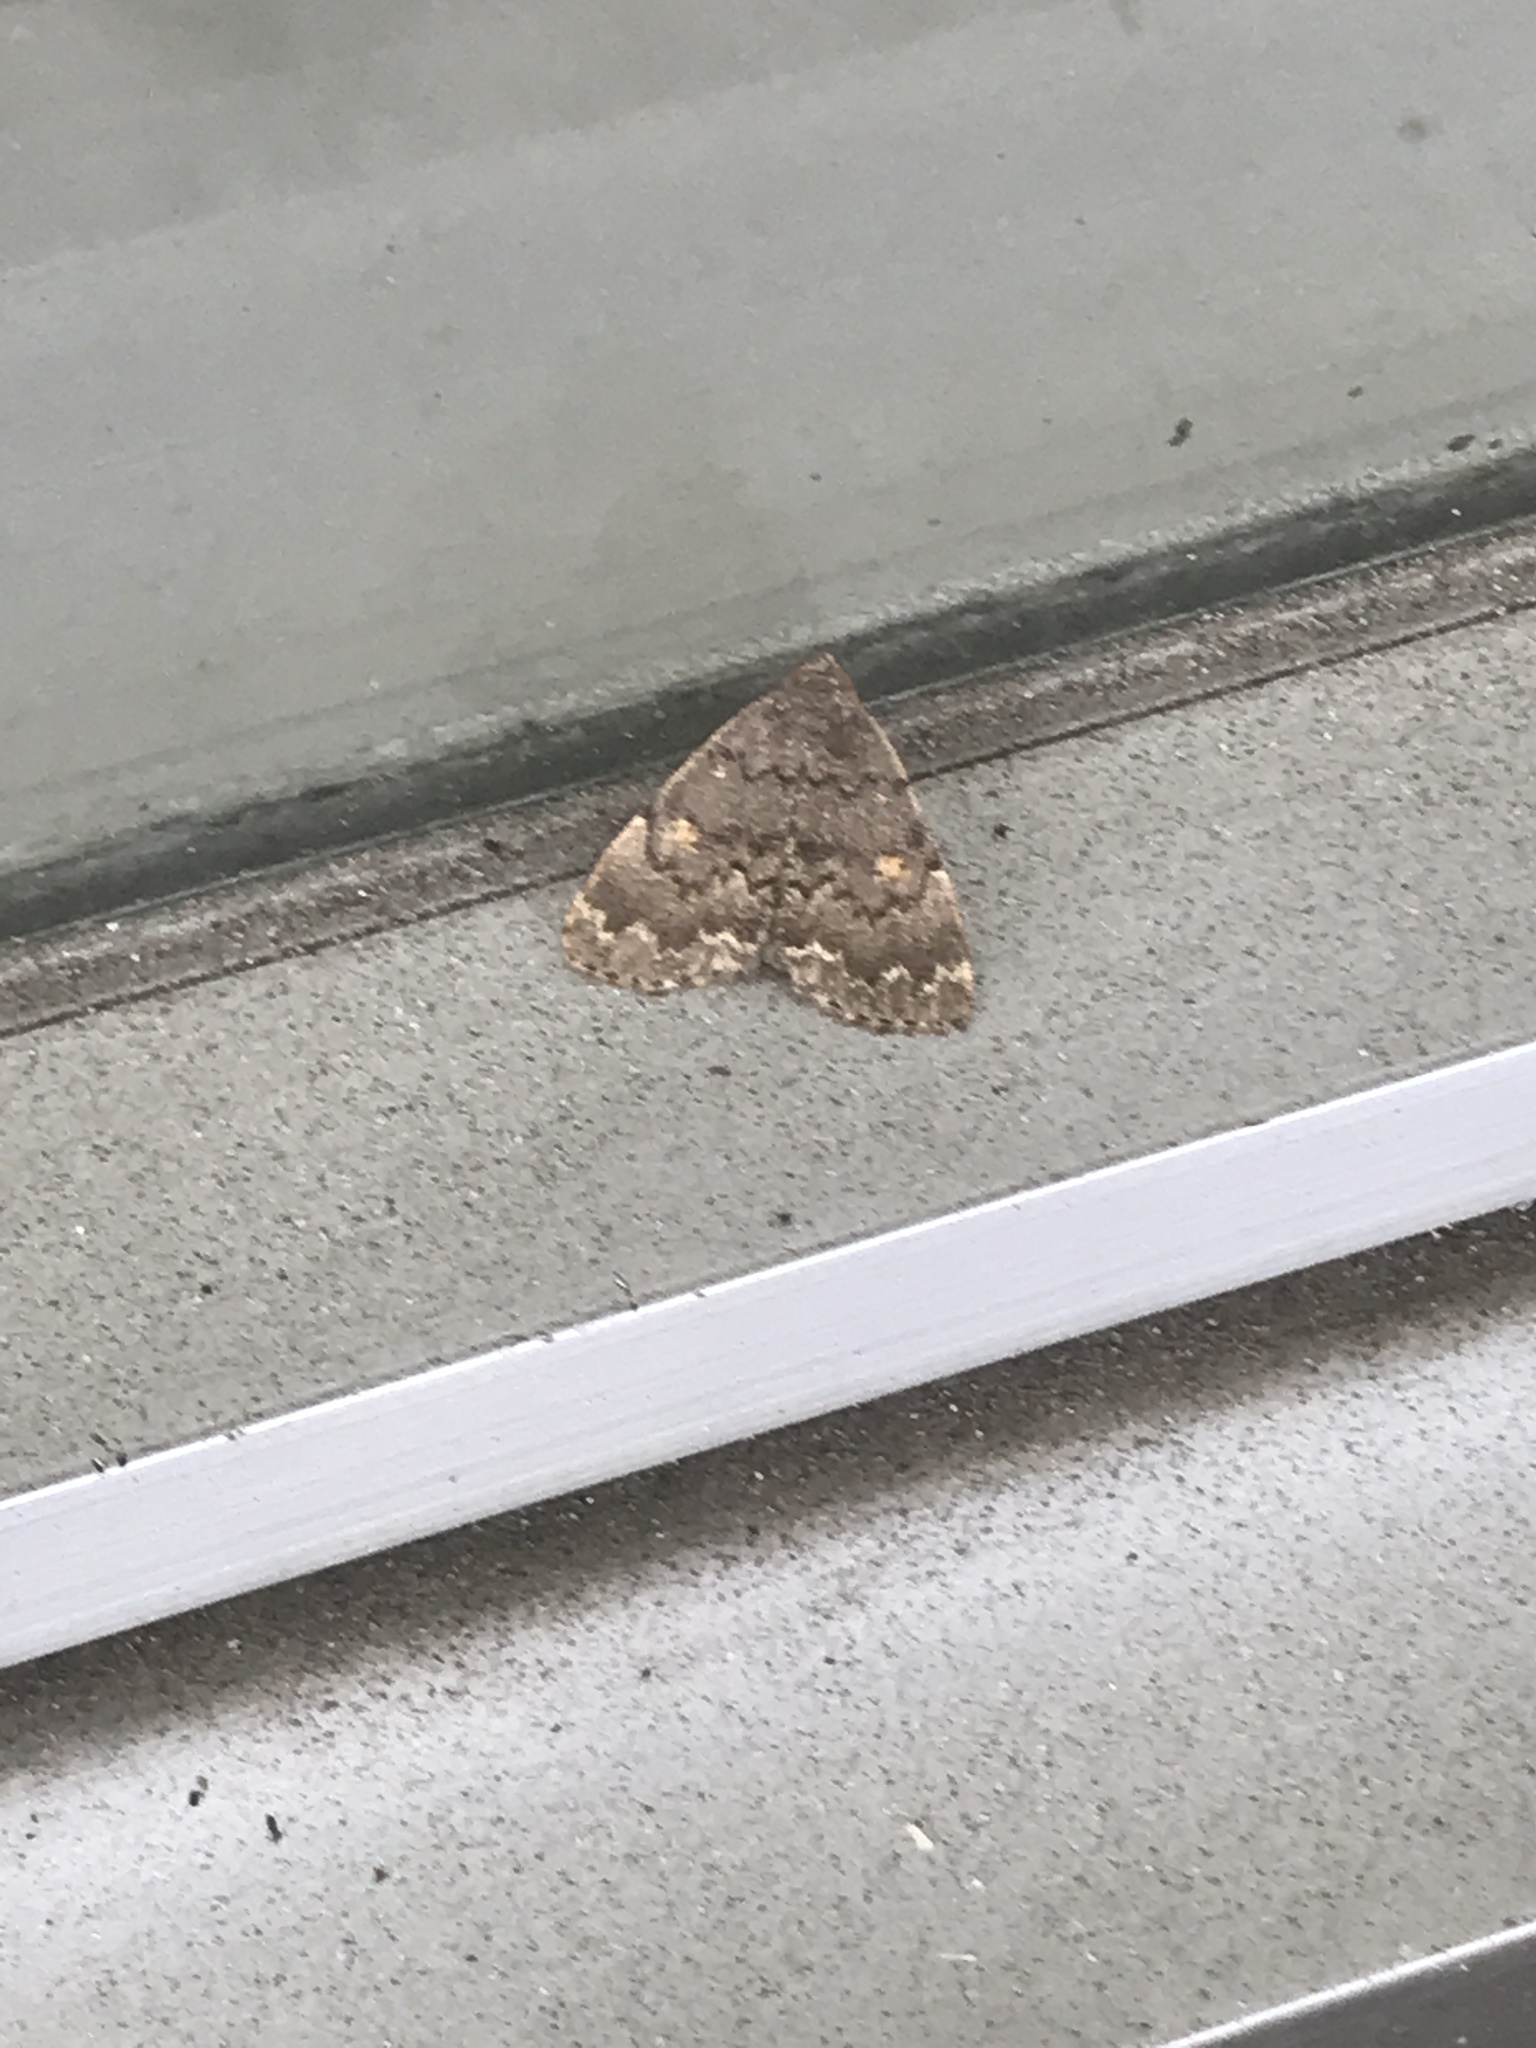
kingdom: Animalia
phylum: Arthropoda
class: Insecta
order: Lepidoptera
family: Erebidae
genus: Idia
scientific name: Idia aemula
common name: Common idia moth
